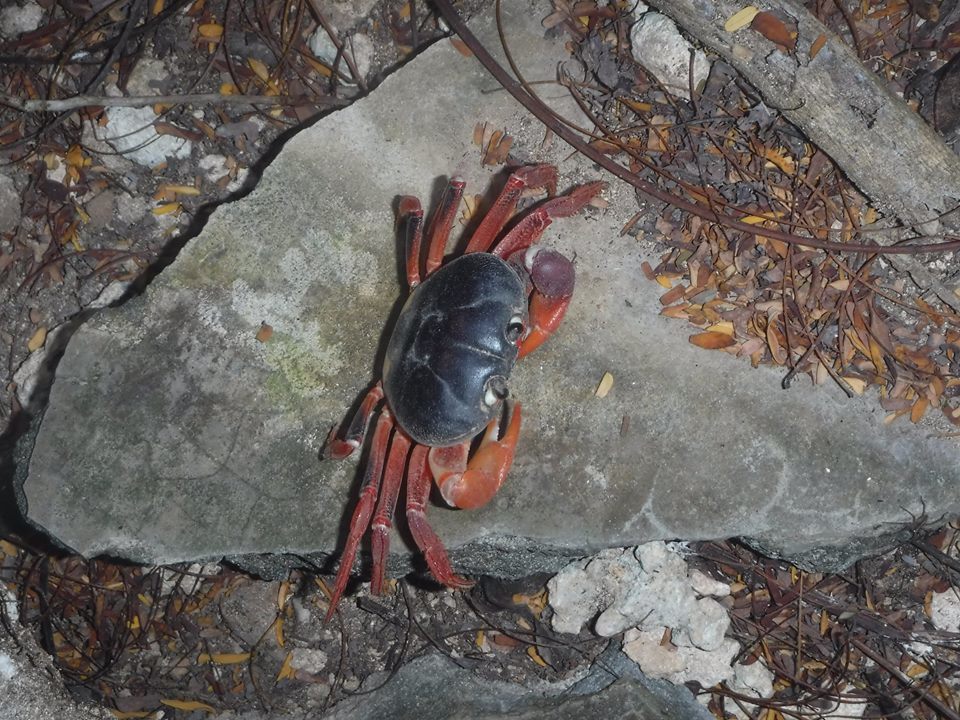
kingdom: Animalia
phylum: Arthropoda
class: Malacostraca
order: Decapoda
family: Gecarcinidae
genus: Gecarcinus
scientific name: Gecarcinus lateralis
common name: Bermuda land crab
